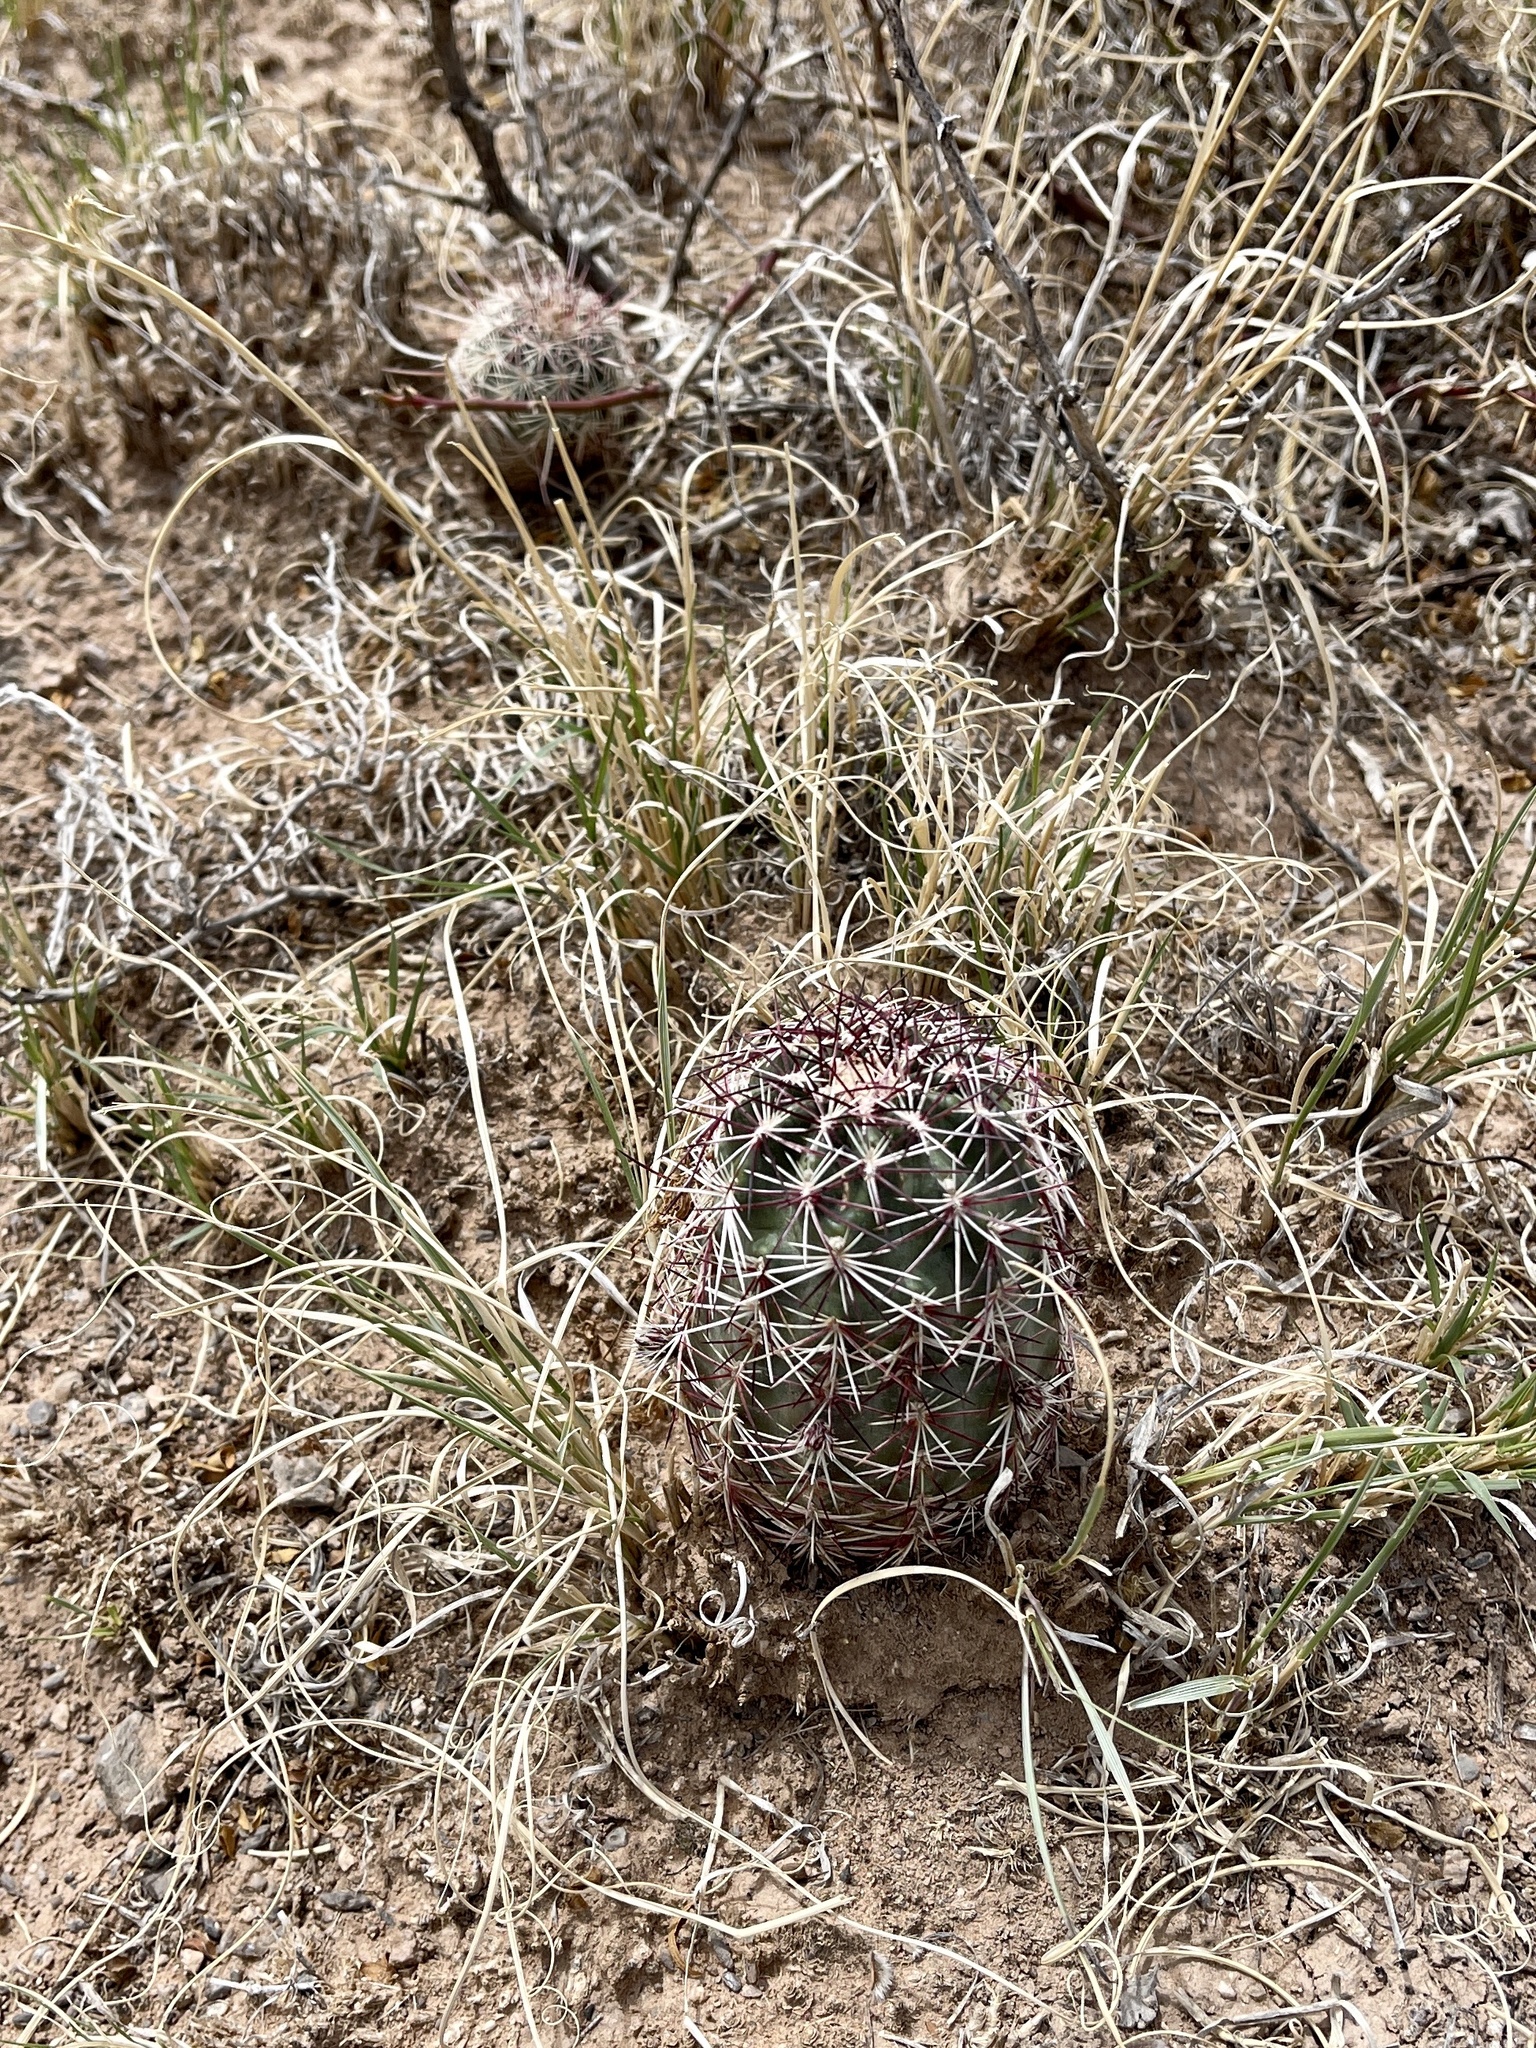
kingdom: Plantae
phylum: Tracheophyta
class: Magnoliopsida
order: Caryophyllales
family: Cactaceae
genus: Echinocereus
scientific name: Echinocereus viridiflorus
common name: Nylon hedgehog cactus
